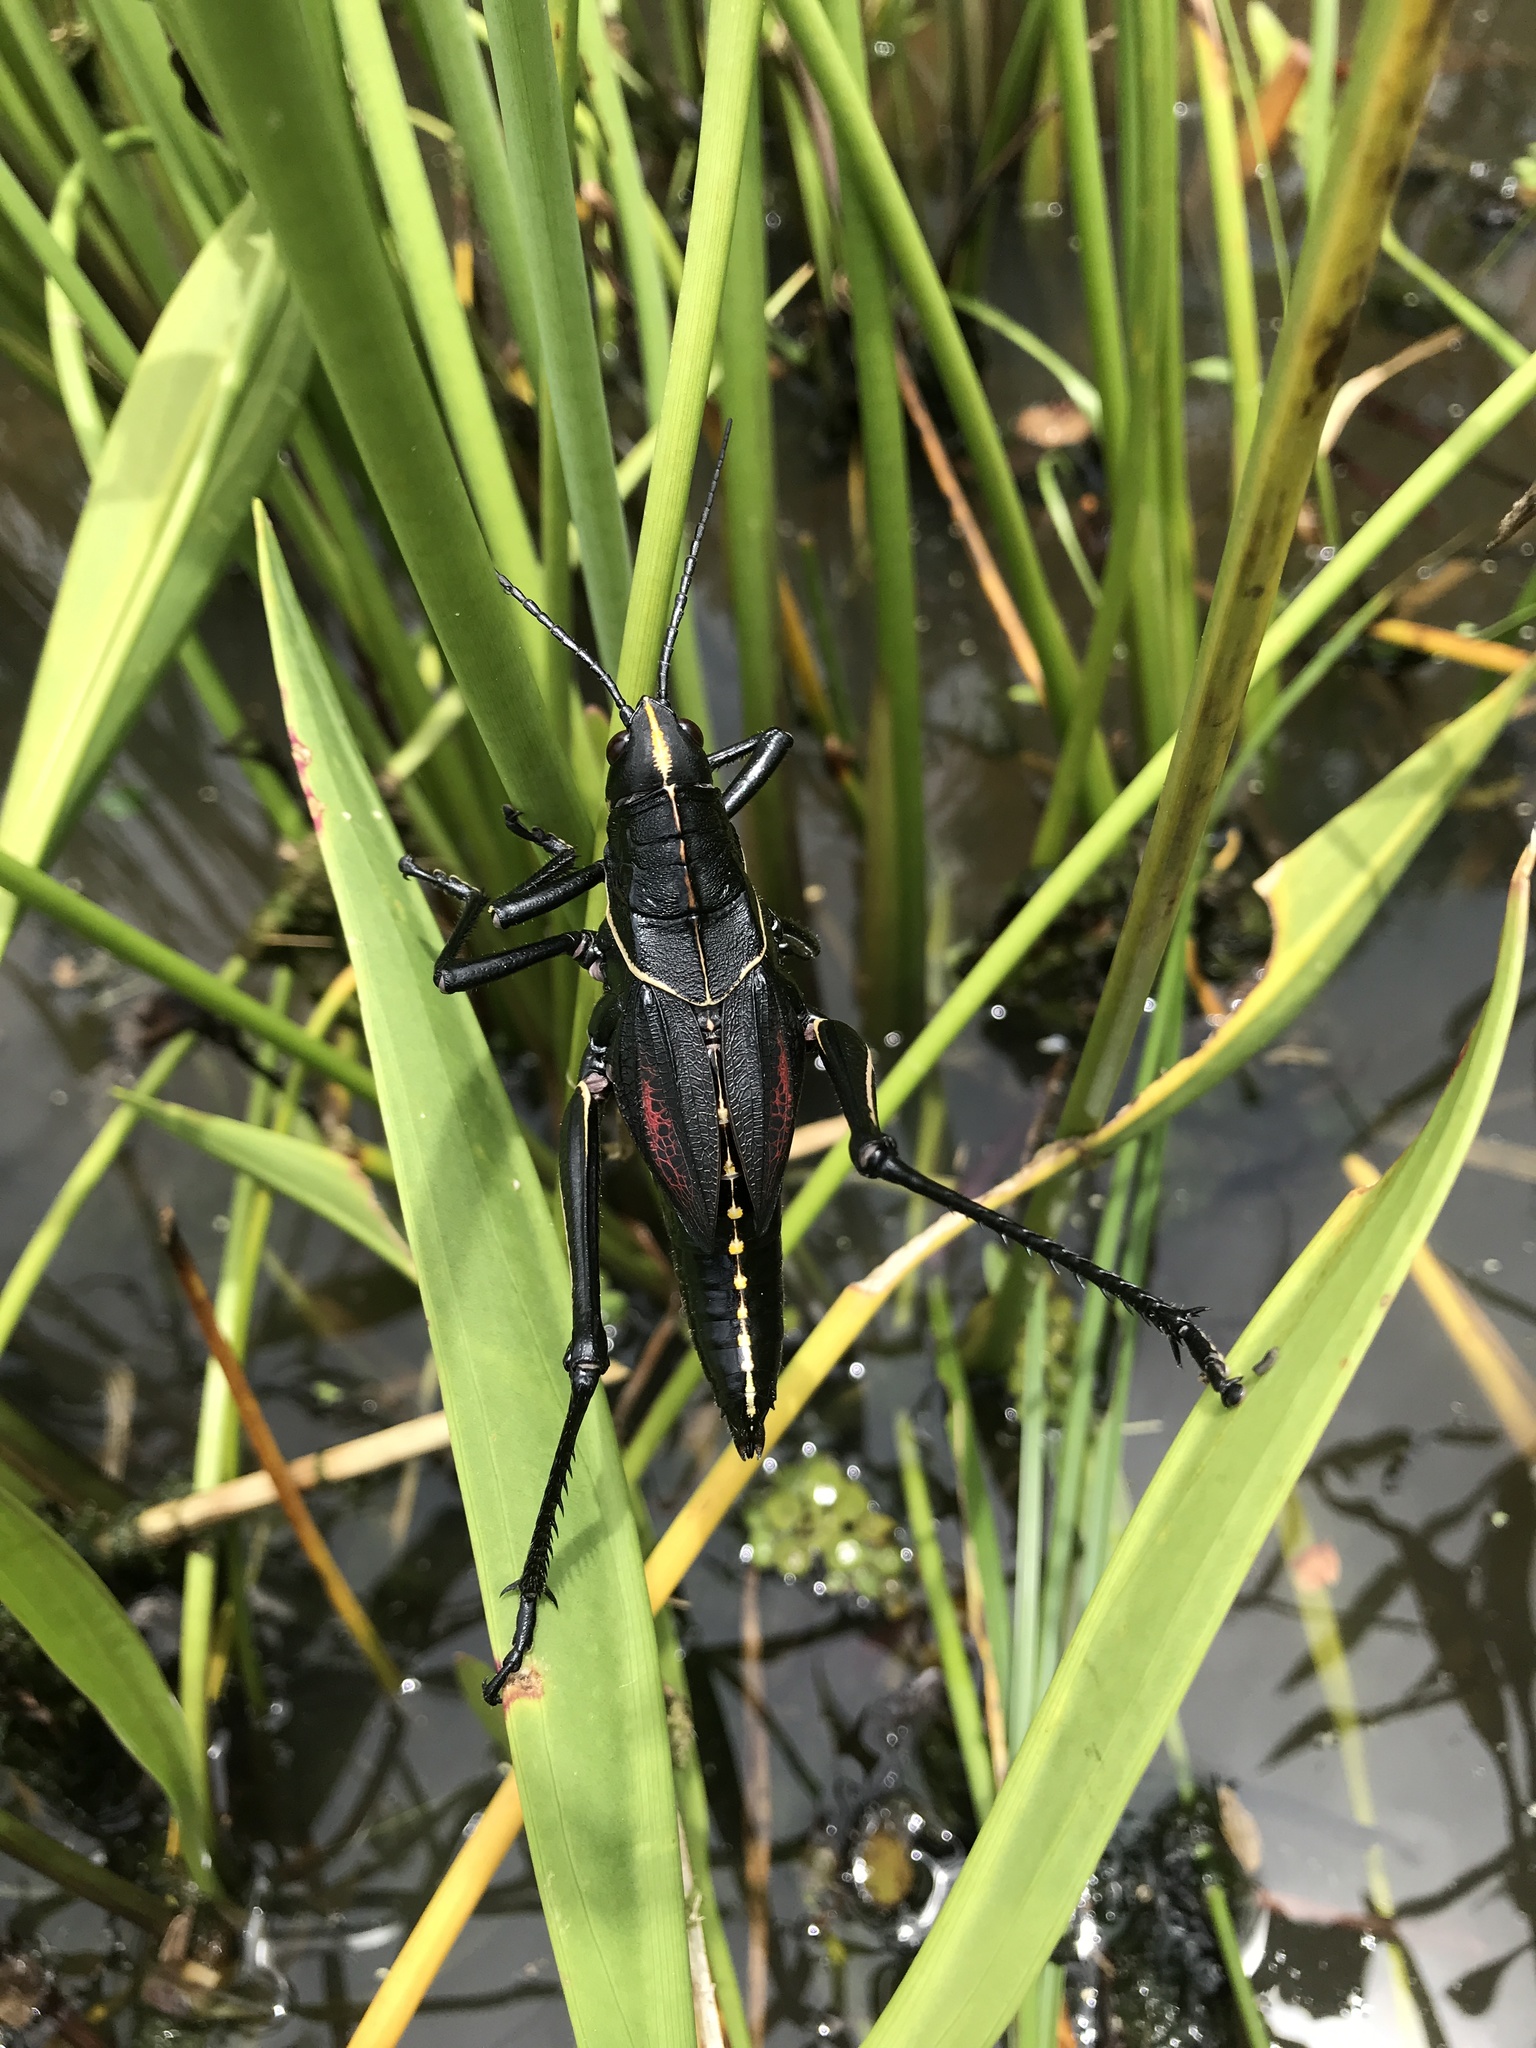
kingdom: Animalia
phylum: Arthropoda
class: Insecta
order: Orthoptera
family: Romaleidae
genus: Romalea
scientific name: Romalea microptera
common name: Eastern lubber grasshopper
